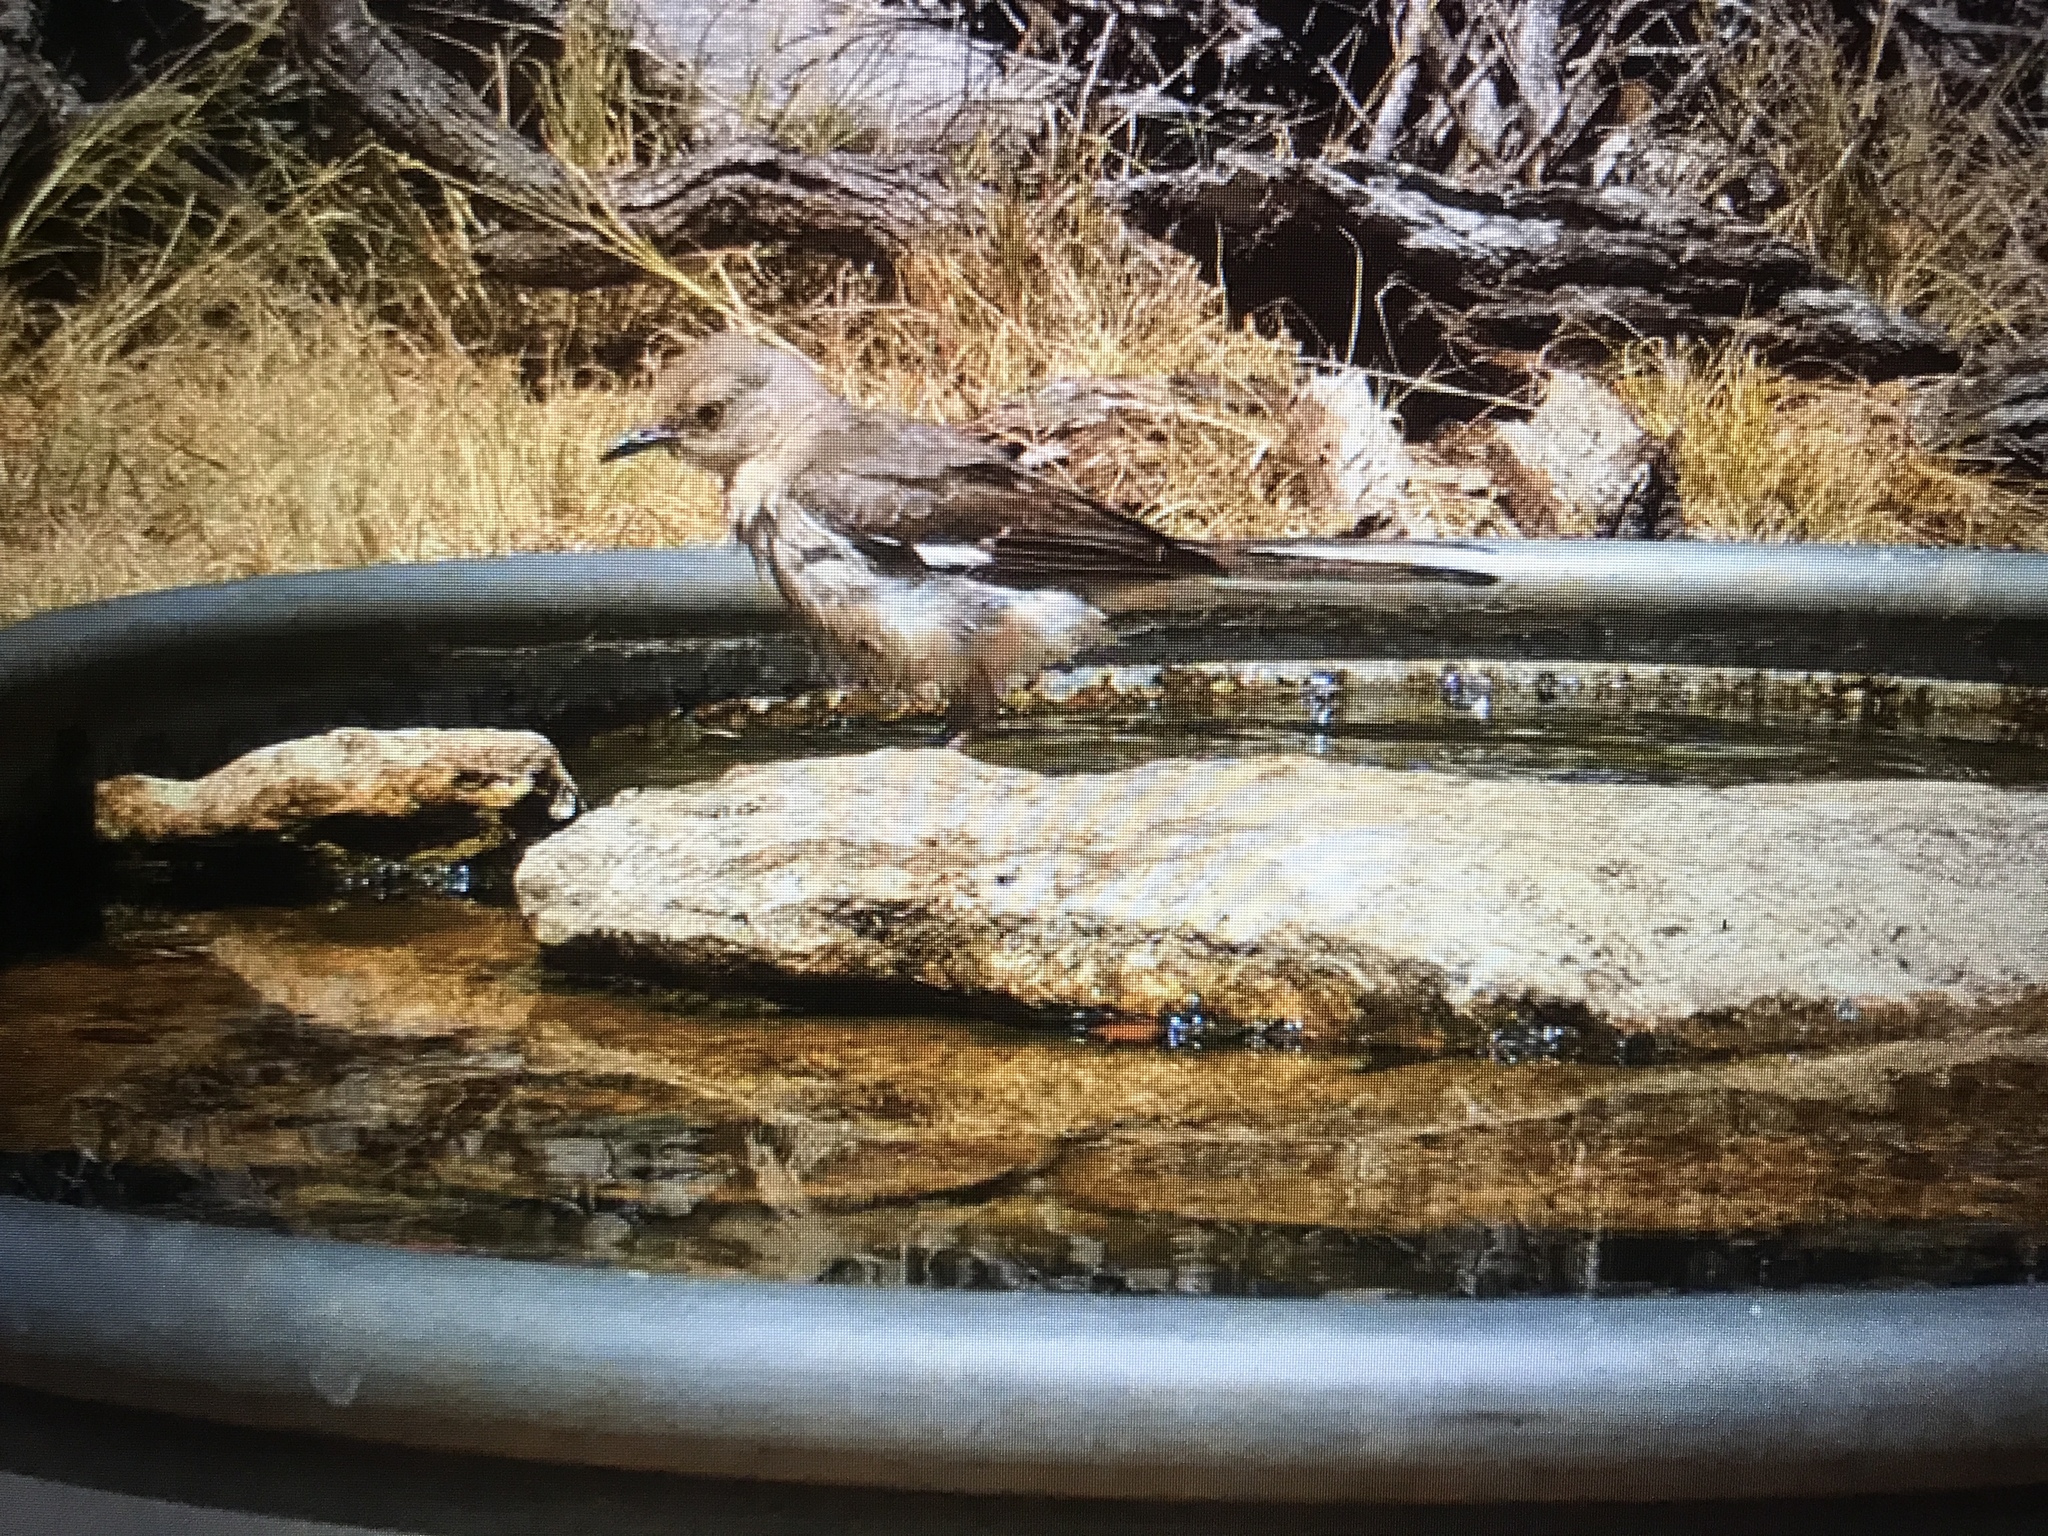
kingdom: Animalia
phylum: Chordata
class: Aves
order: Passeriformes
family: Mimidae
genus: Mimus
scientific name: Mimus polyglottos
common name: Northern mockingbird
